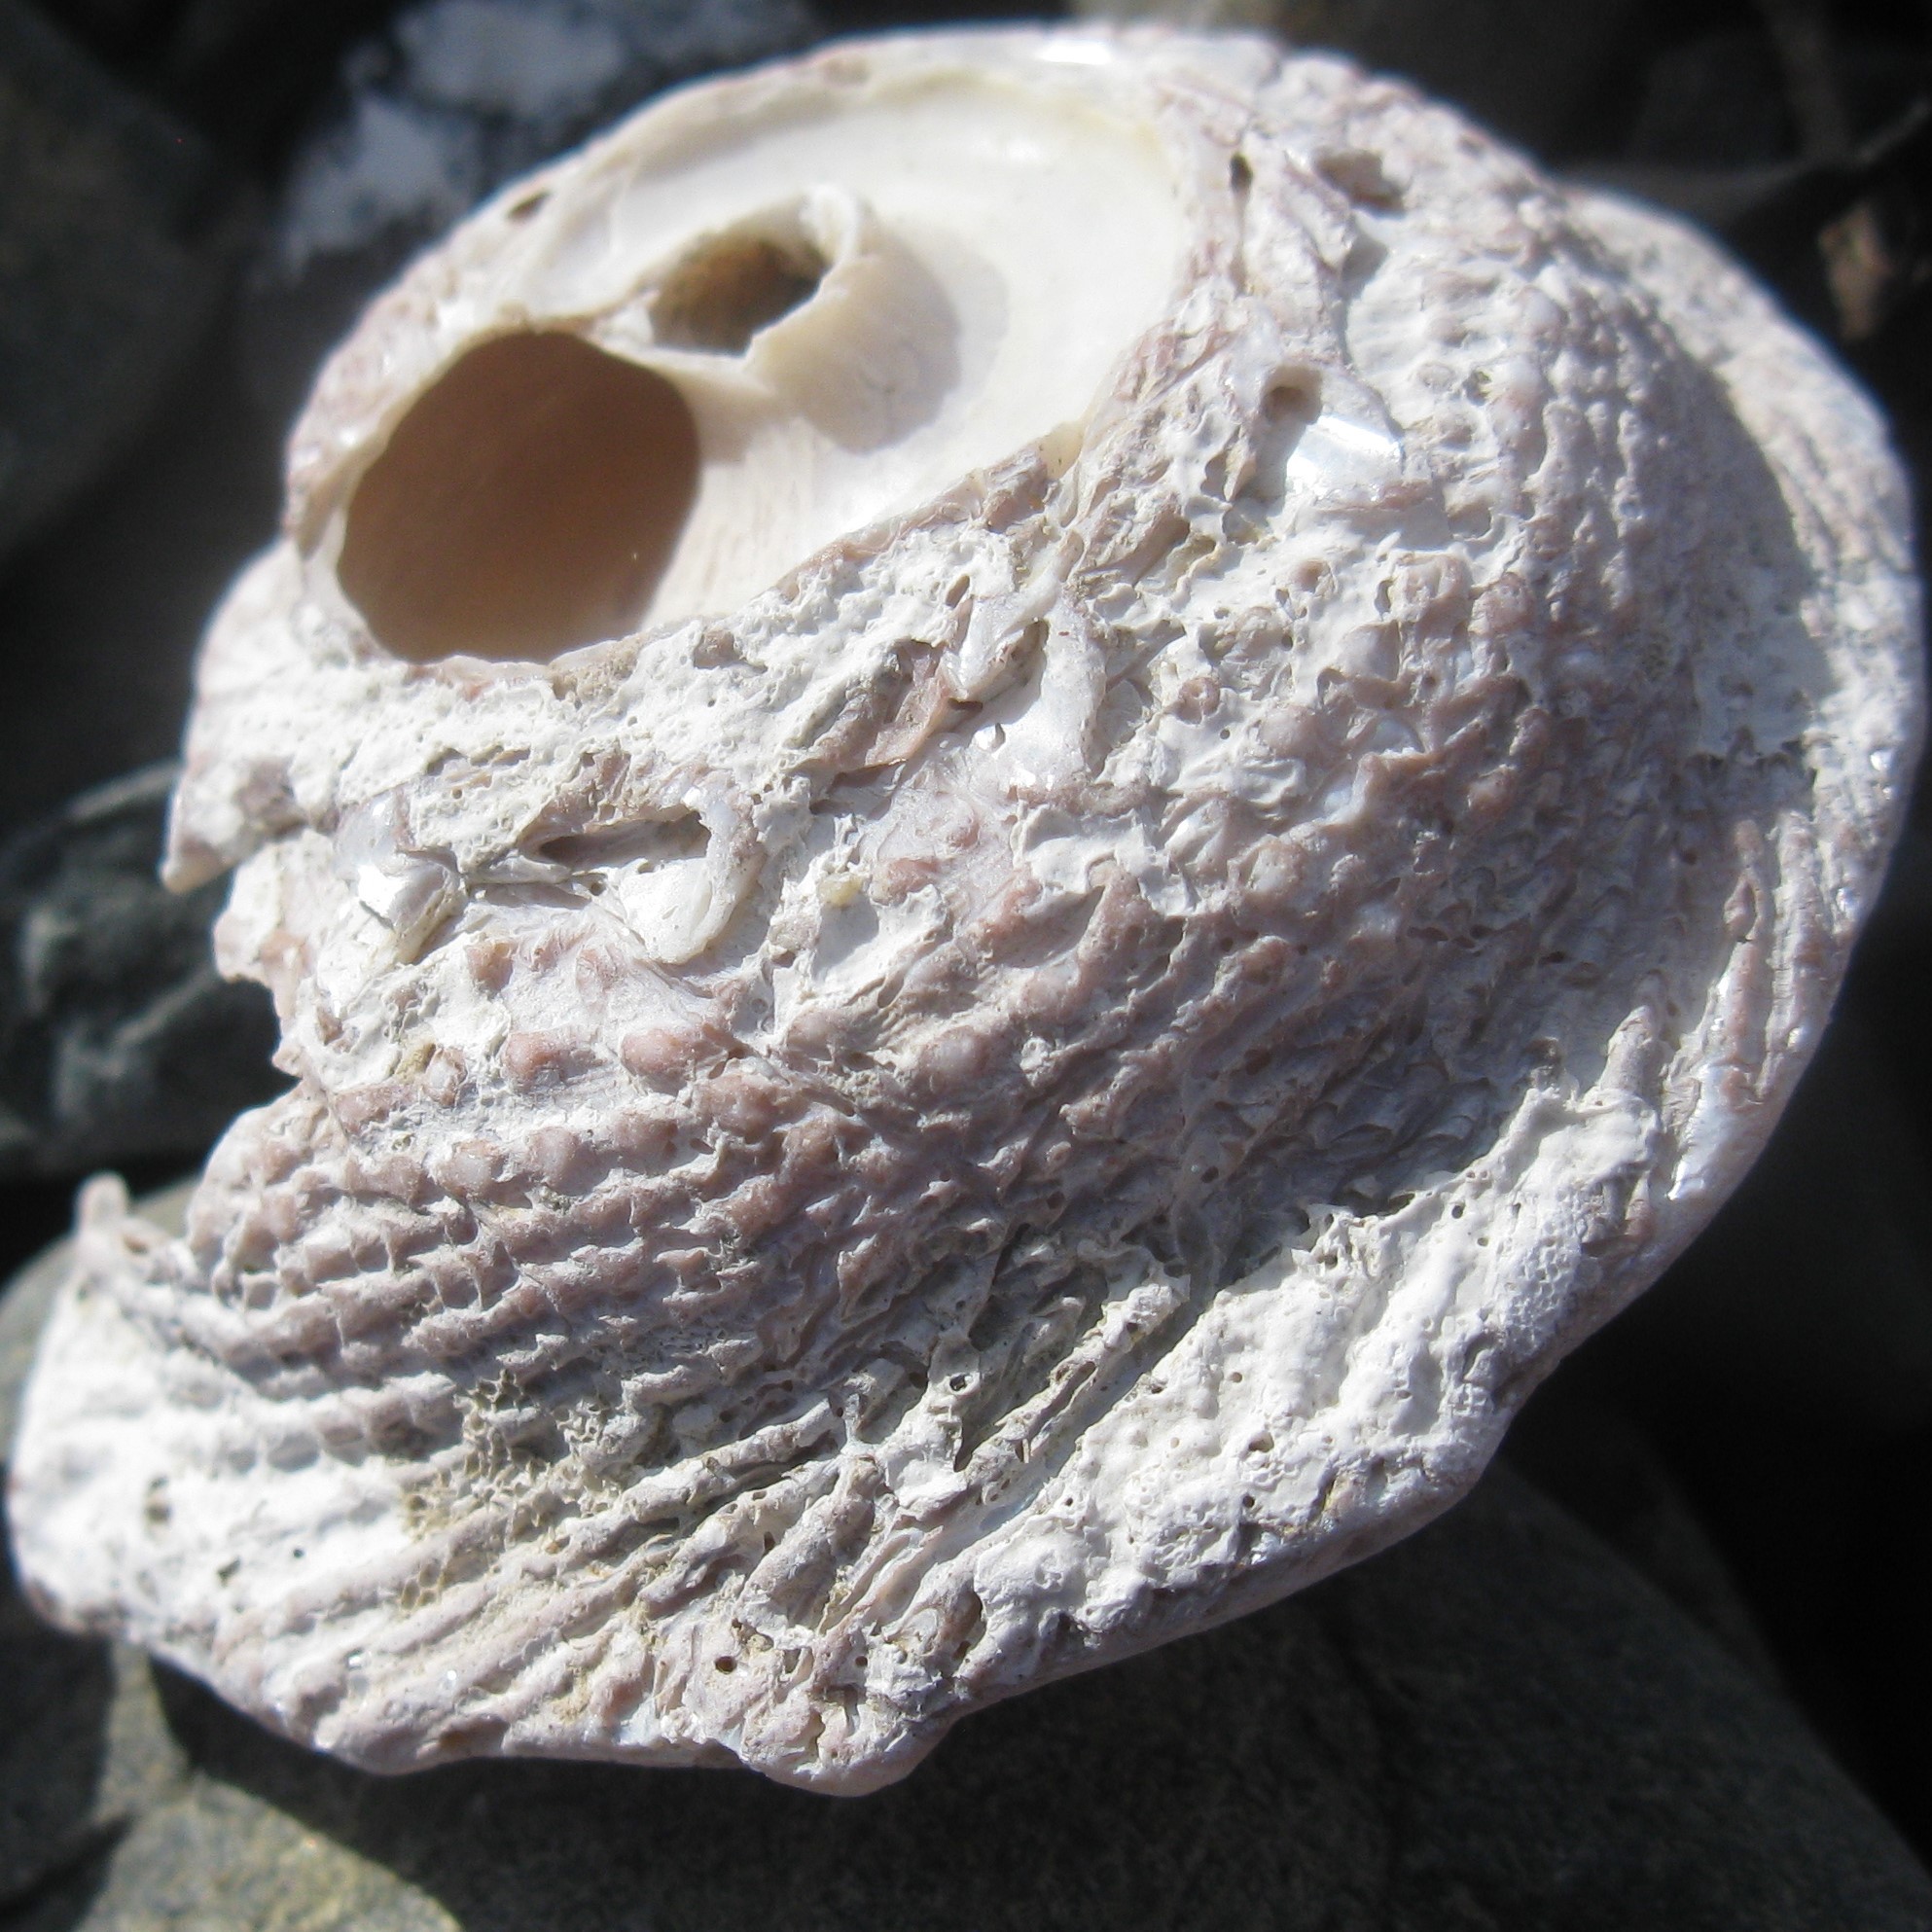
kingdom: Animalia
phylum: Mollusca
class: Gastropoda
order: Trochida
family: Turbinidae
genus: Astraea
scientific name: Astraea heliotropium
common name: Sun shell
